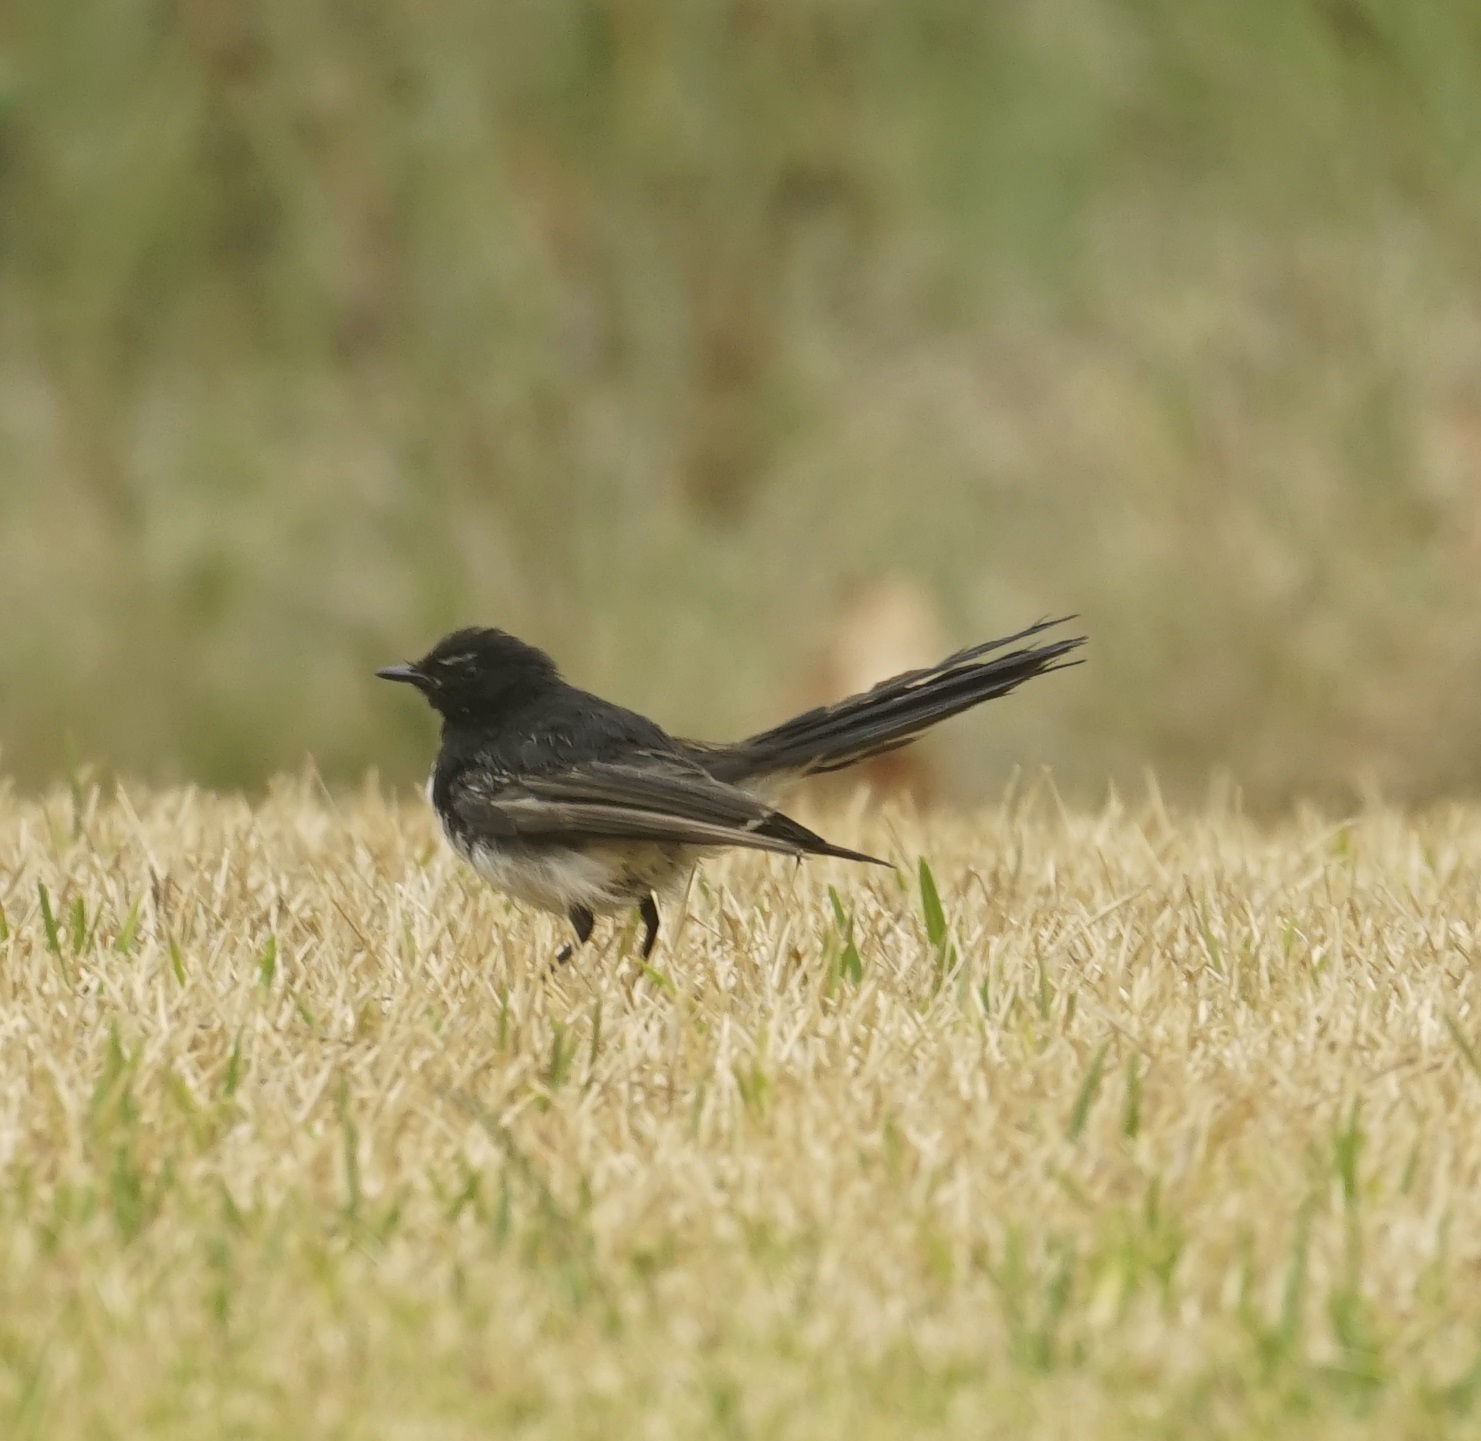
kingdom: Animalia
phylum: Chordata
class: Aves
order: Passeriformes
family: Rhipiduridae
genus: Rhipidura
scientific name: Rhipidura leucophrys
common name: Willie wagtail
